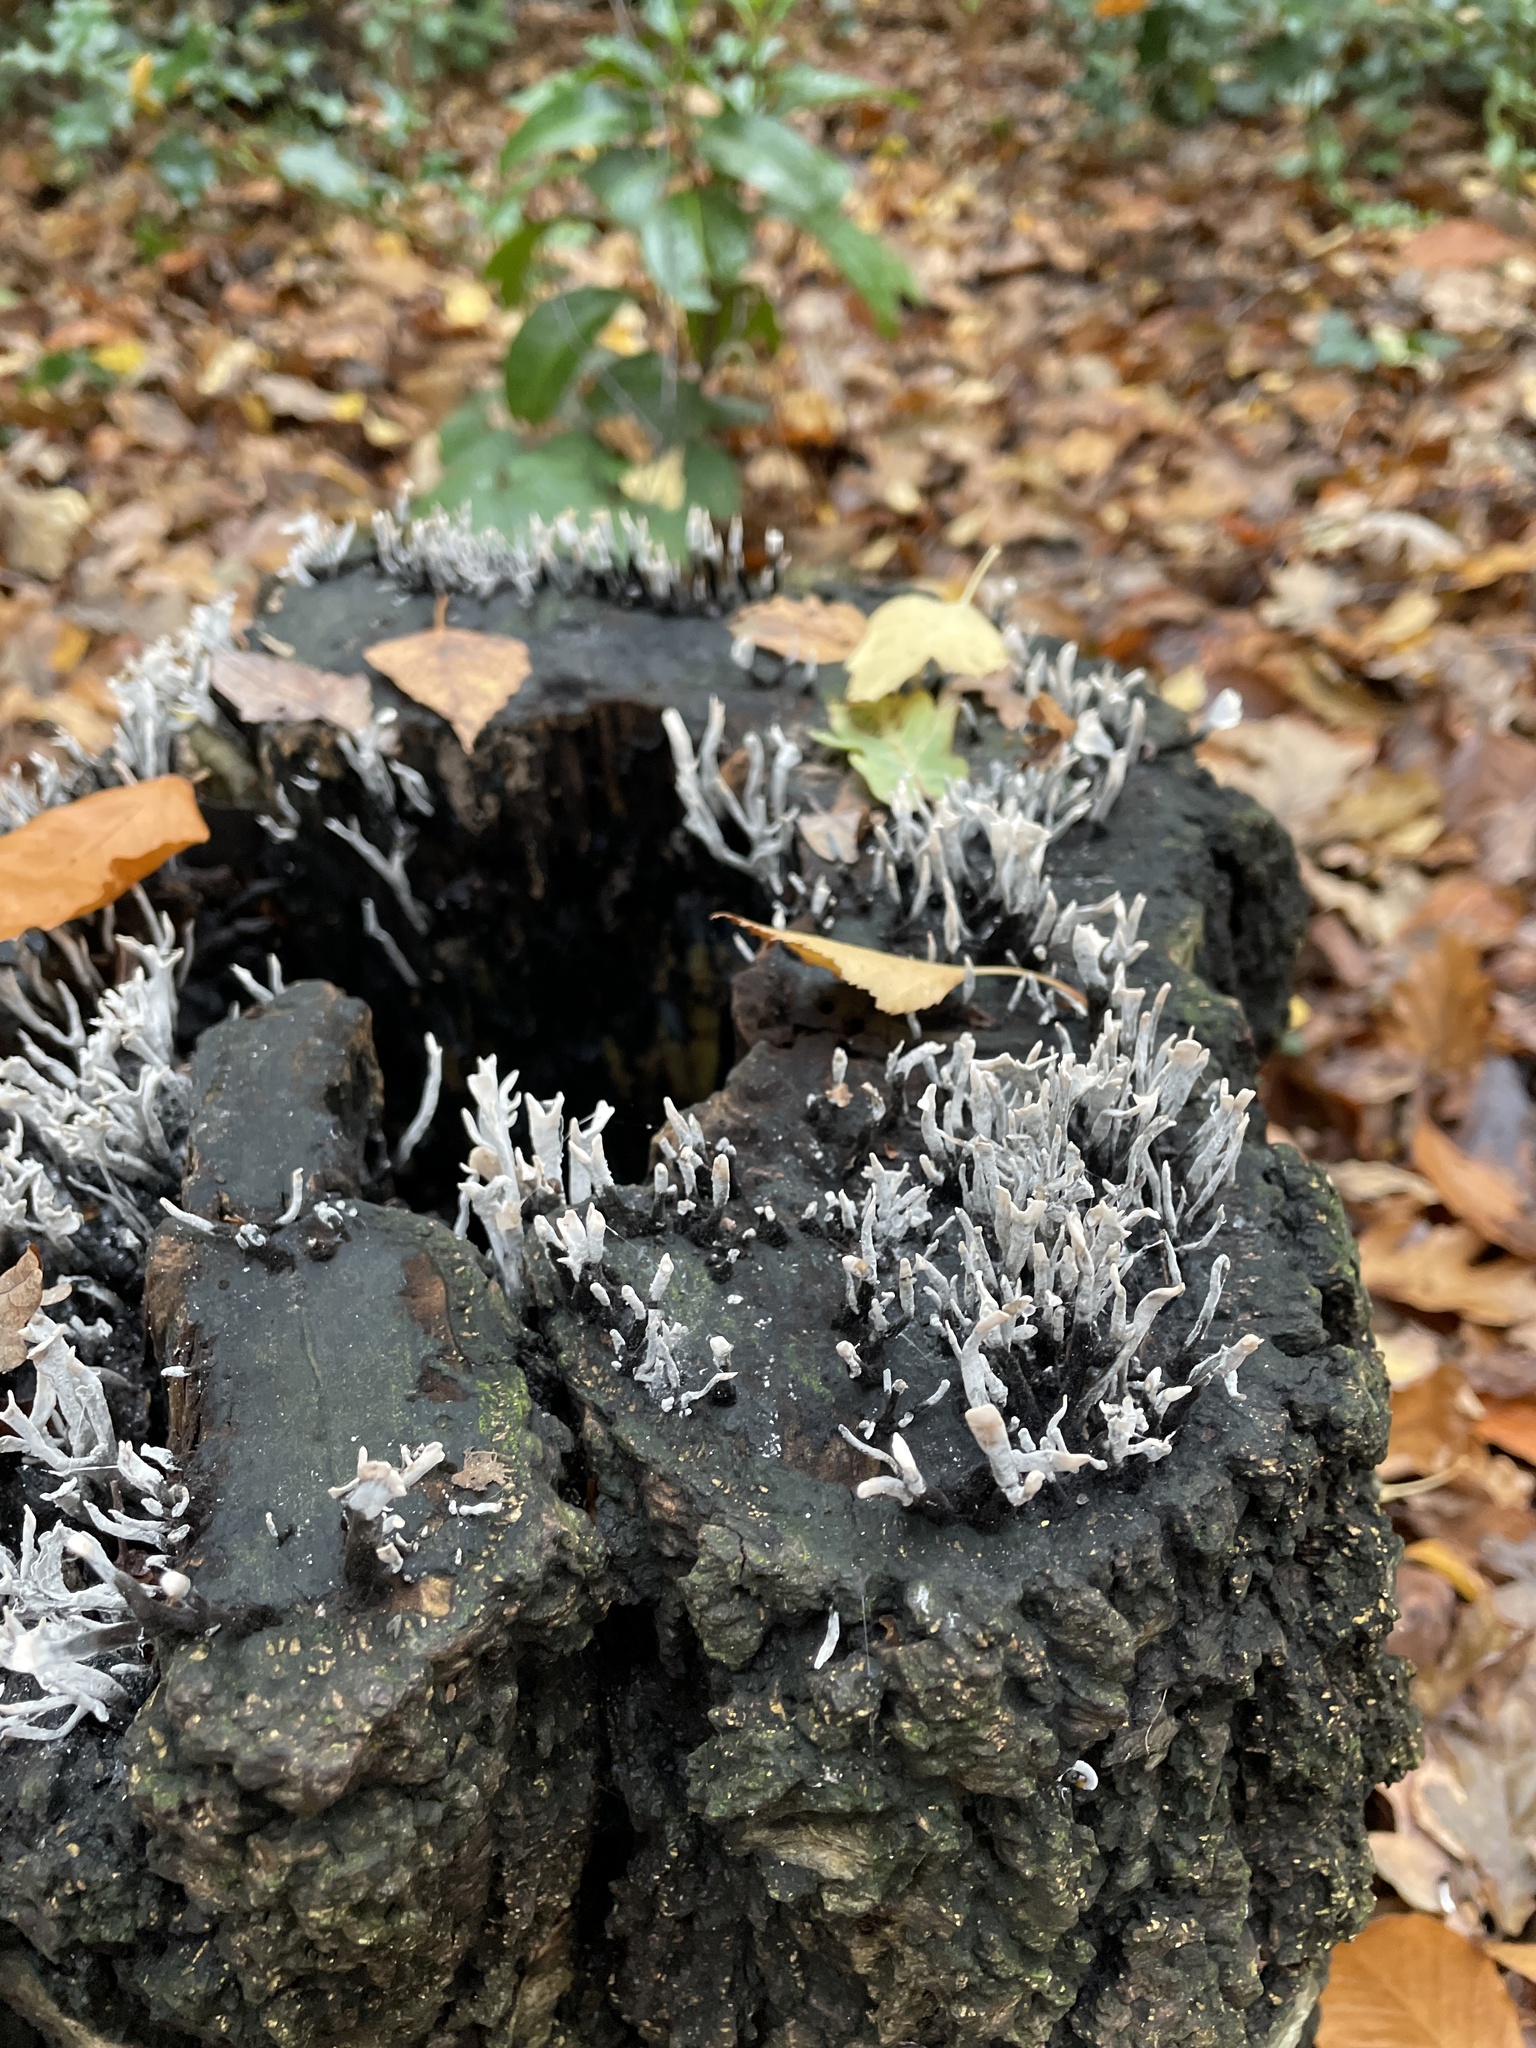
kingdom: Fungi
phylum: Ascomycota
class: Sordariomycetes
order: Xylariales
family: Xylariaceae
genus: Xylaria
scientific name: Xylaria hypoxylon
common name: Candle-snuff fungus
